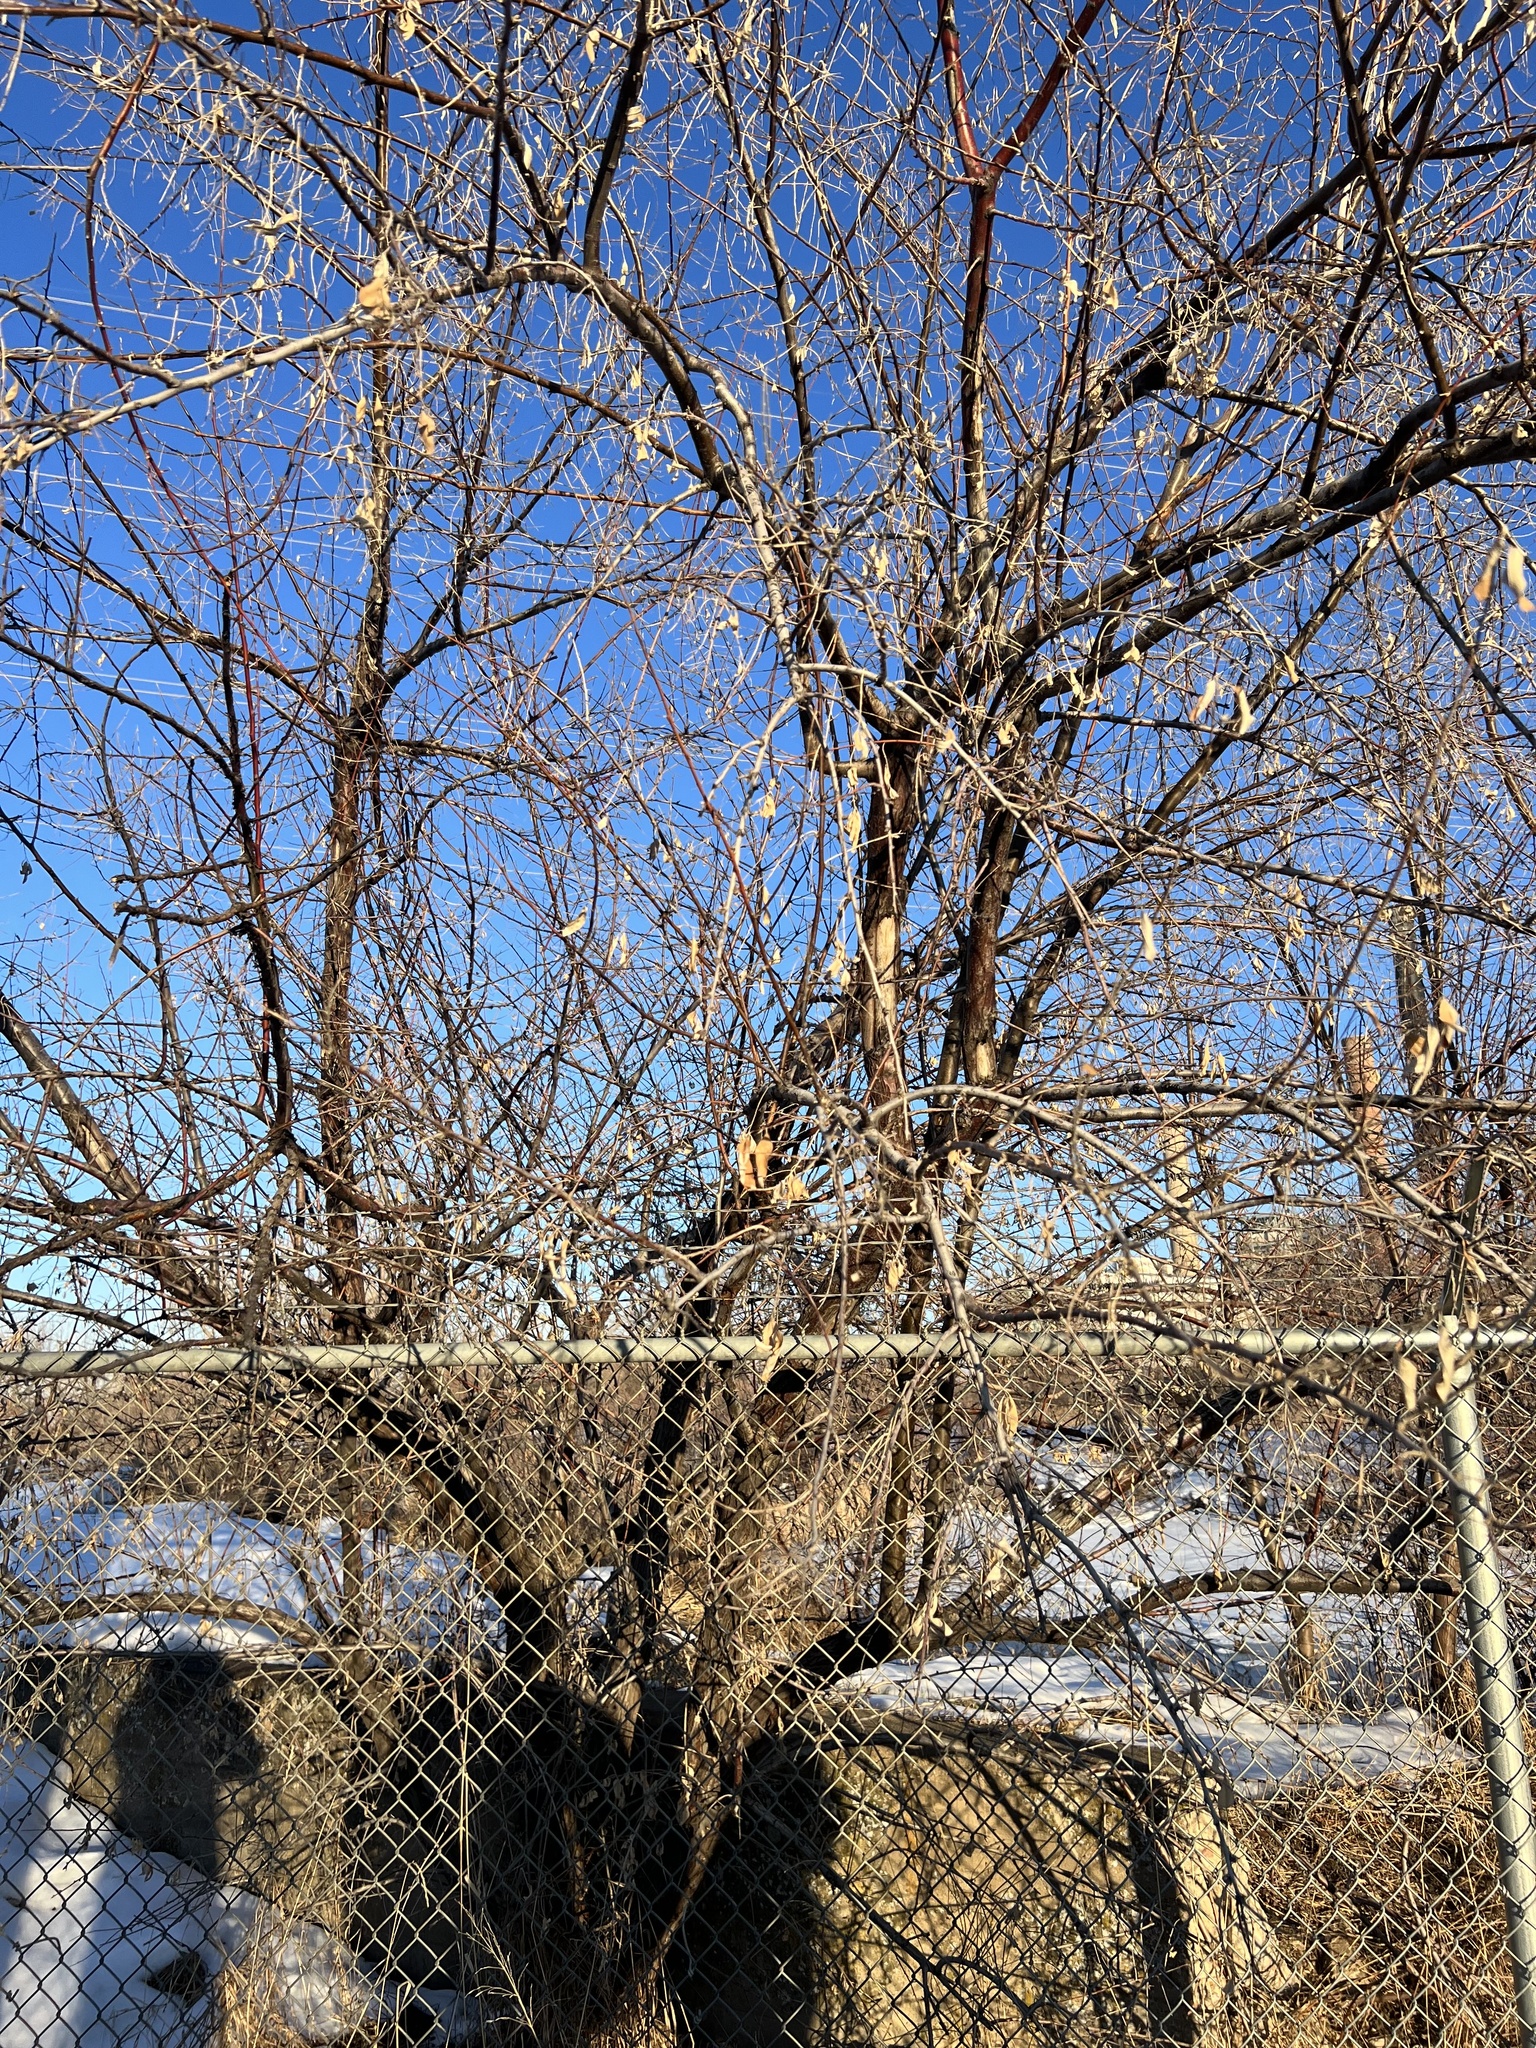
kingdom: Plantae
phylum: Tracheophyta
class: Magnoliopsida
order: Rosales
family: Elaeagnaceae
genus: Elaeagnus
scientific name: Elaeagnus angustifolia
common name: Russian olive
